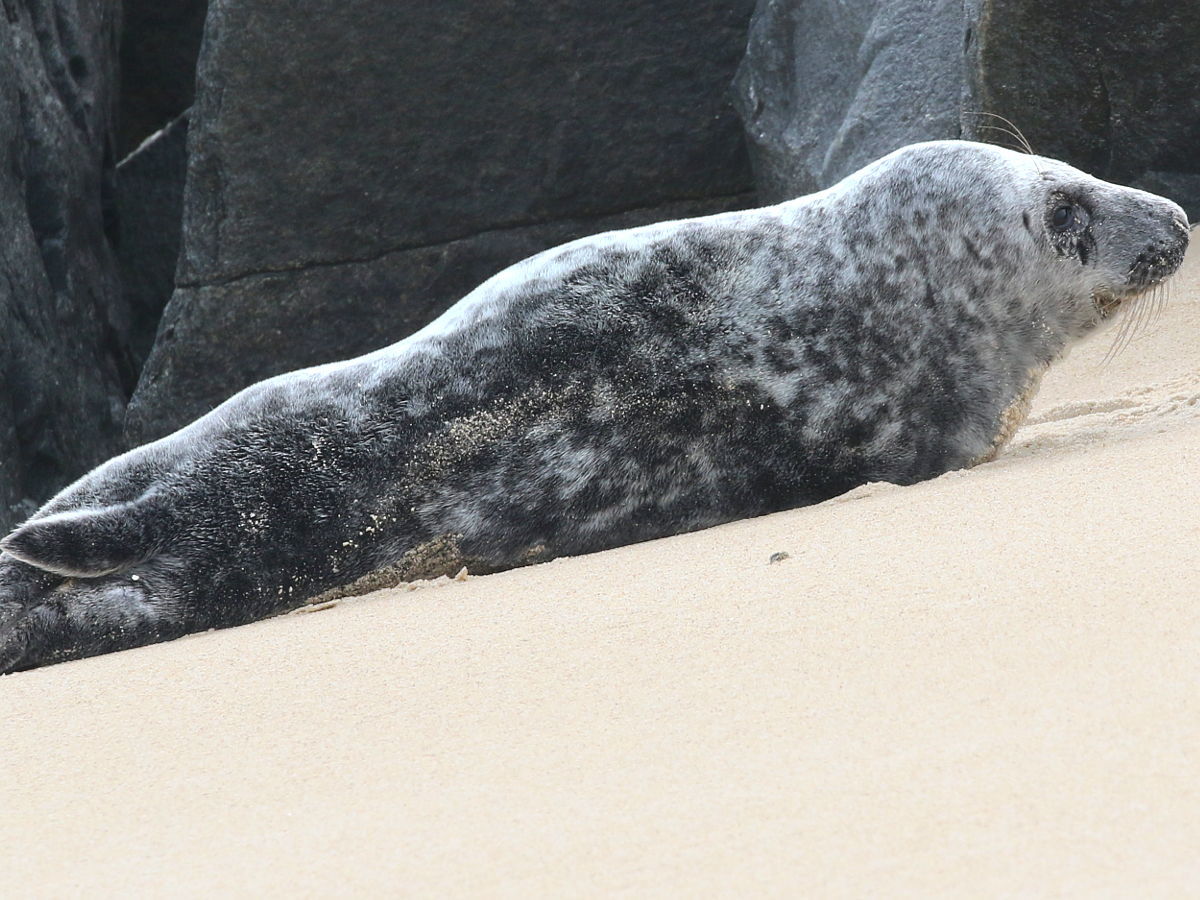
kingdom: Animalia
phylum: Chordata
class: Mammalia
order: Carnivora
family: Phocidae
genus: Halichoerus
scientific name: Halichoerus grypus
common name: Grey seal
